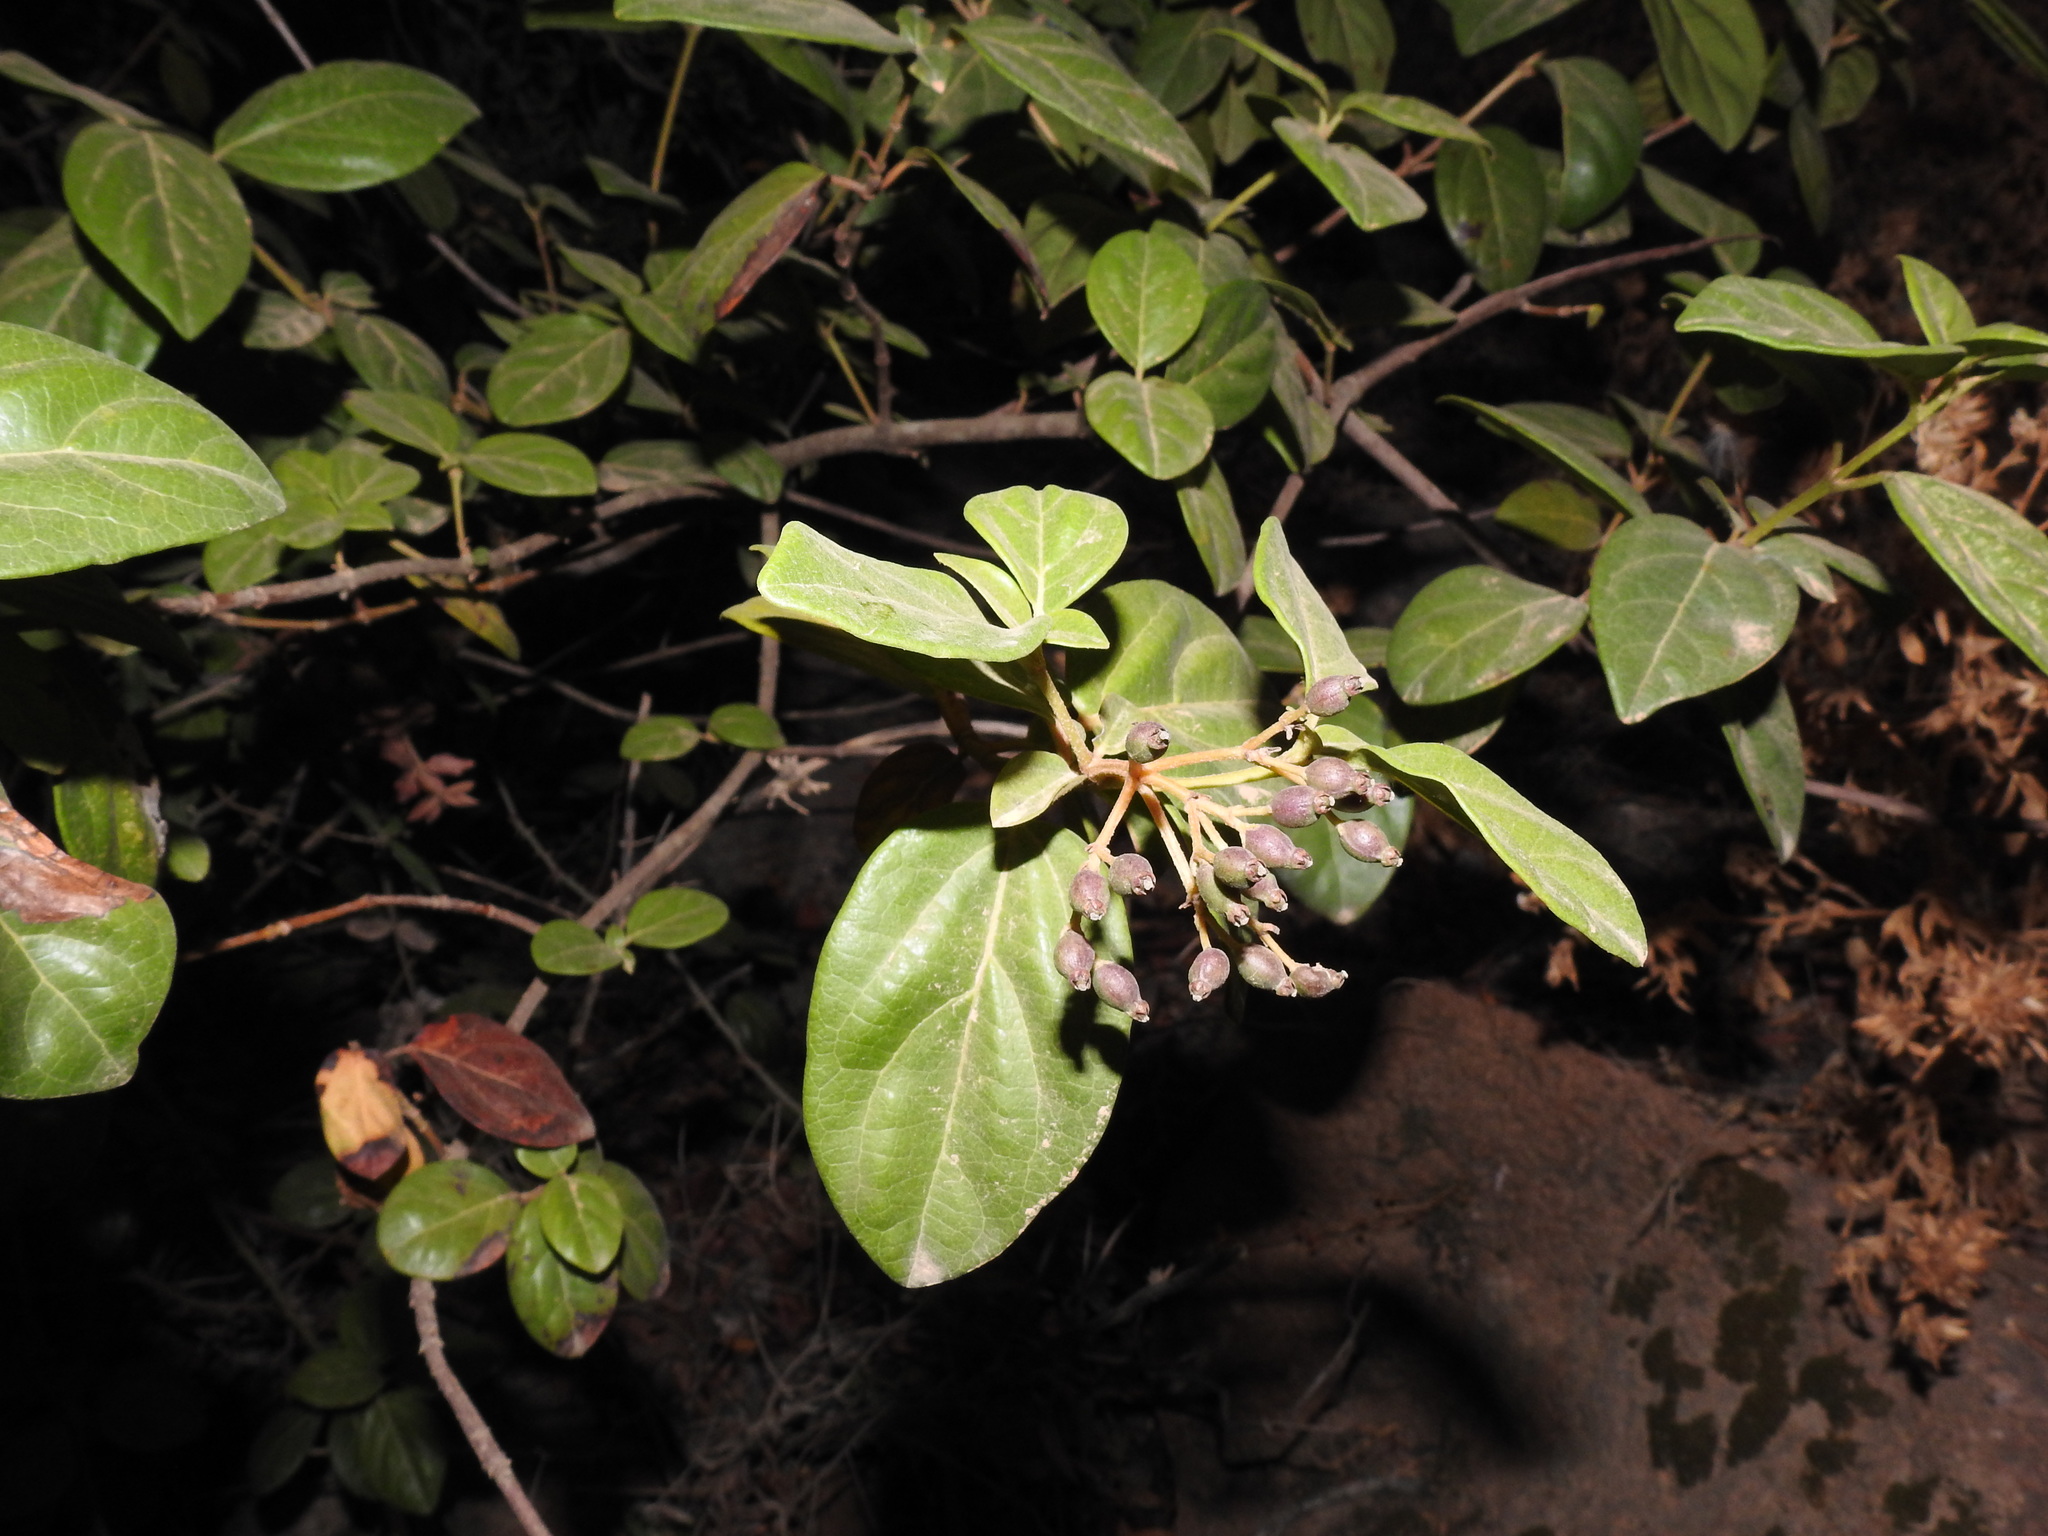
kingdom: Plantae
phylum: Tracheophyta
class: Magnoliopsida
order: Dipsacales
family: Viburnaceae
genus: Viburnum
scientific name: Viburnum tinus
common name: Laurustinus
